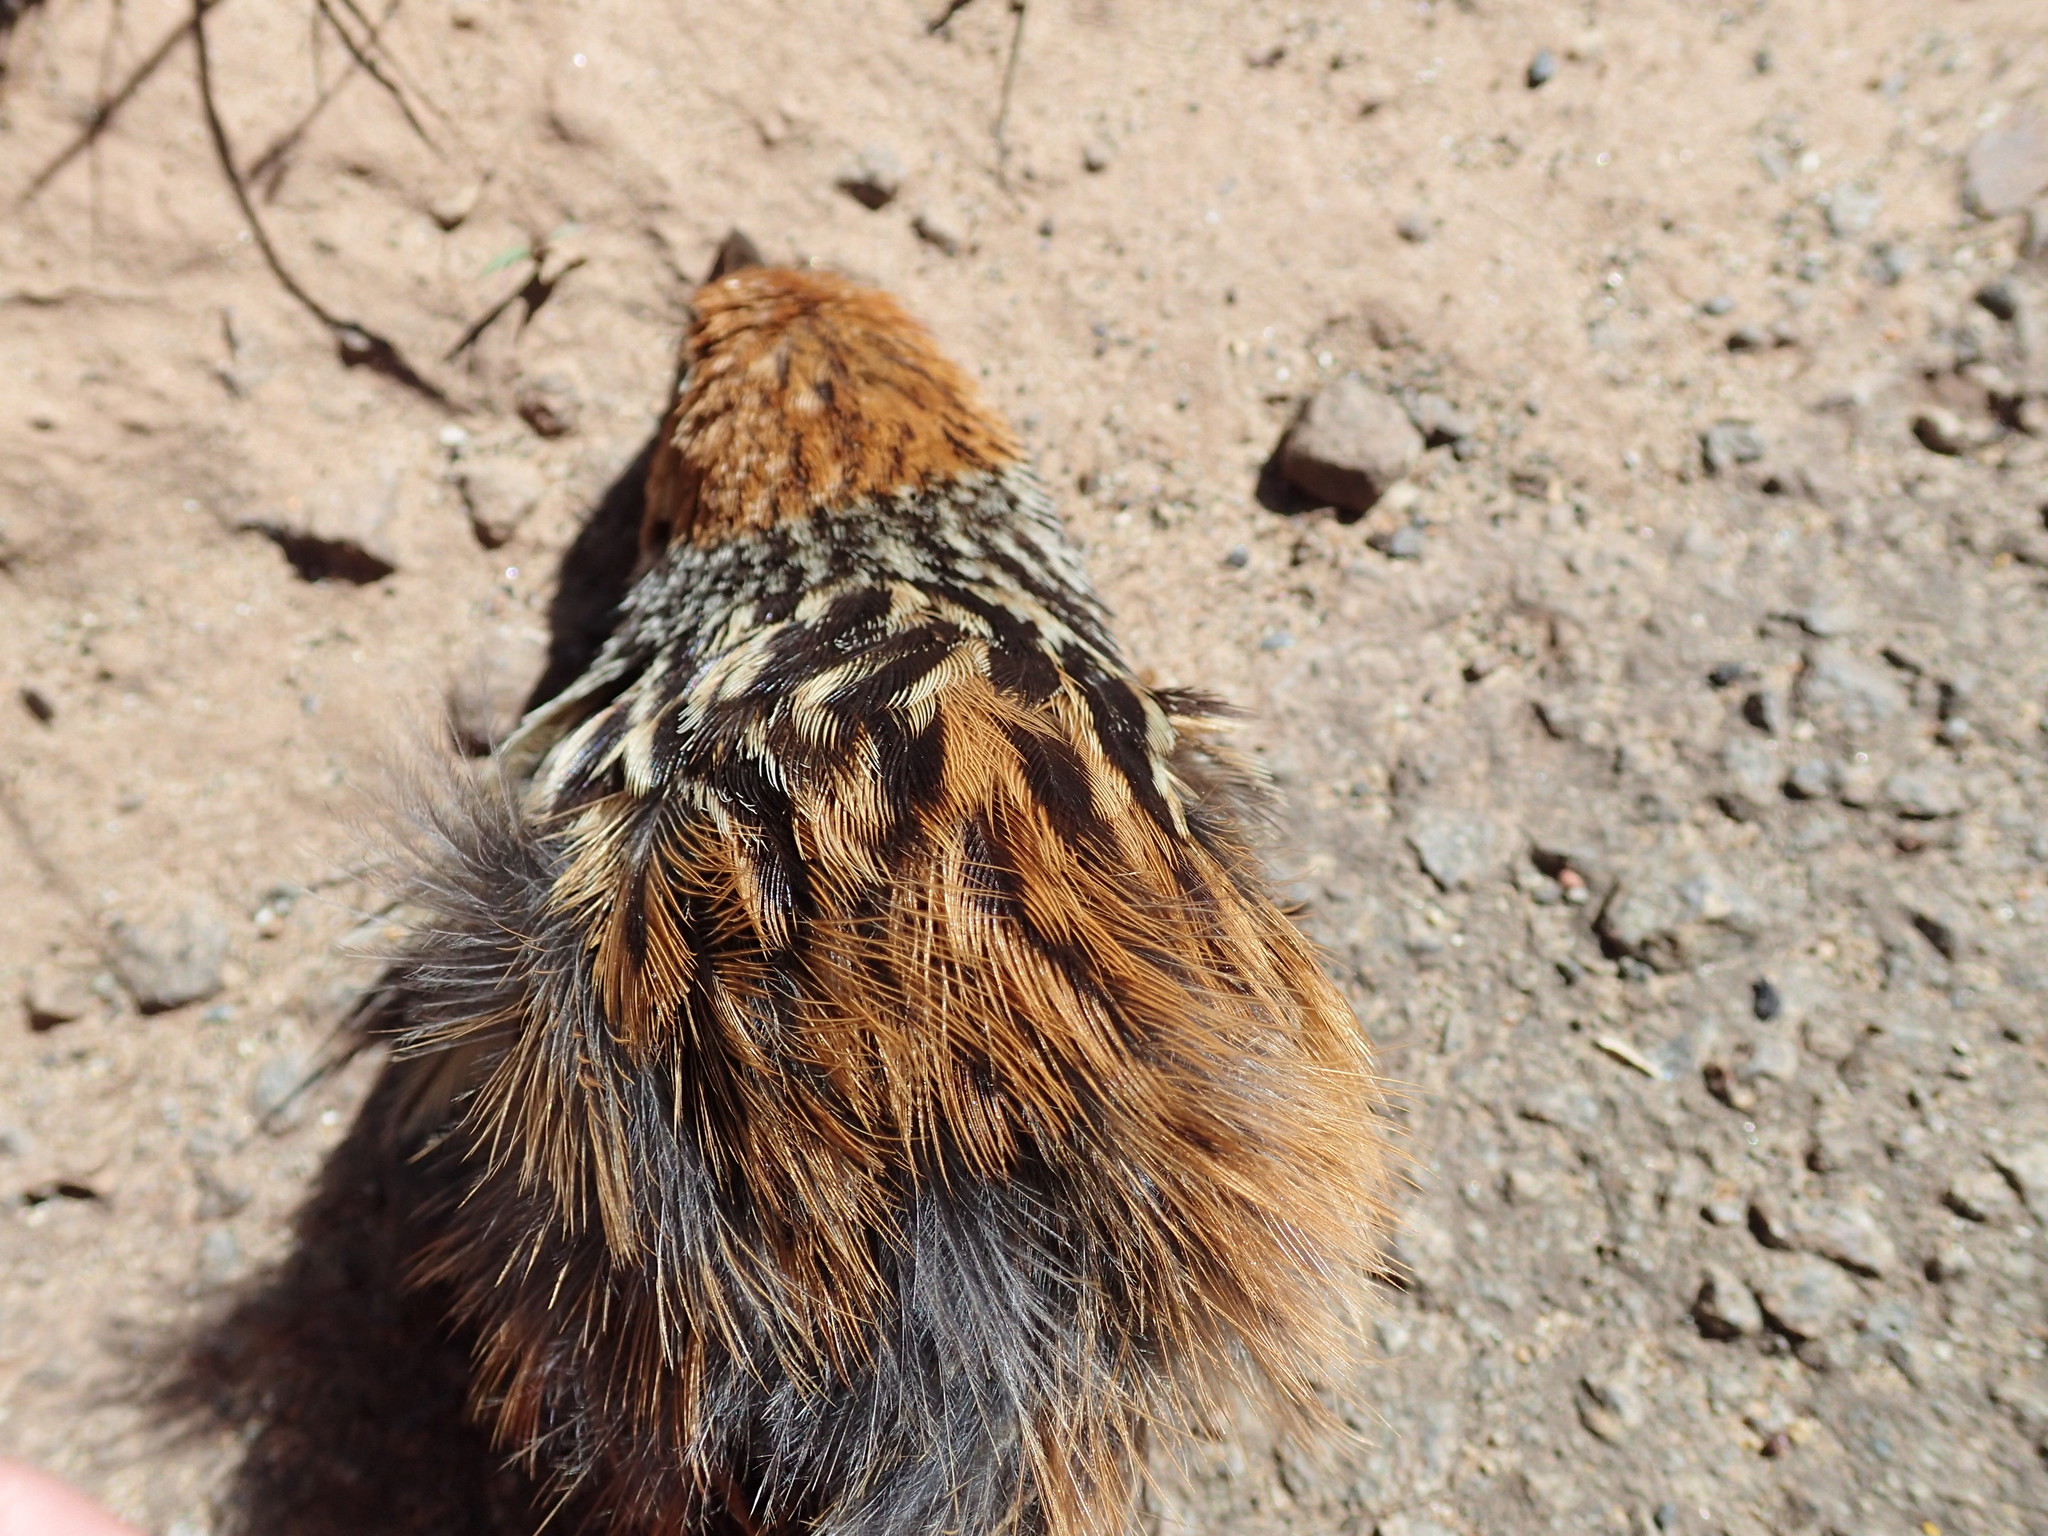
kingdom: Animalia
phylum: Chordata
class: Aves
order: Passeriformes
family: Macrosphenidae
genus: Sphenoeacus
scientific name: Sphenoeacus afer
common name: Cape grassbird
